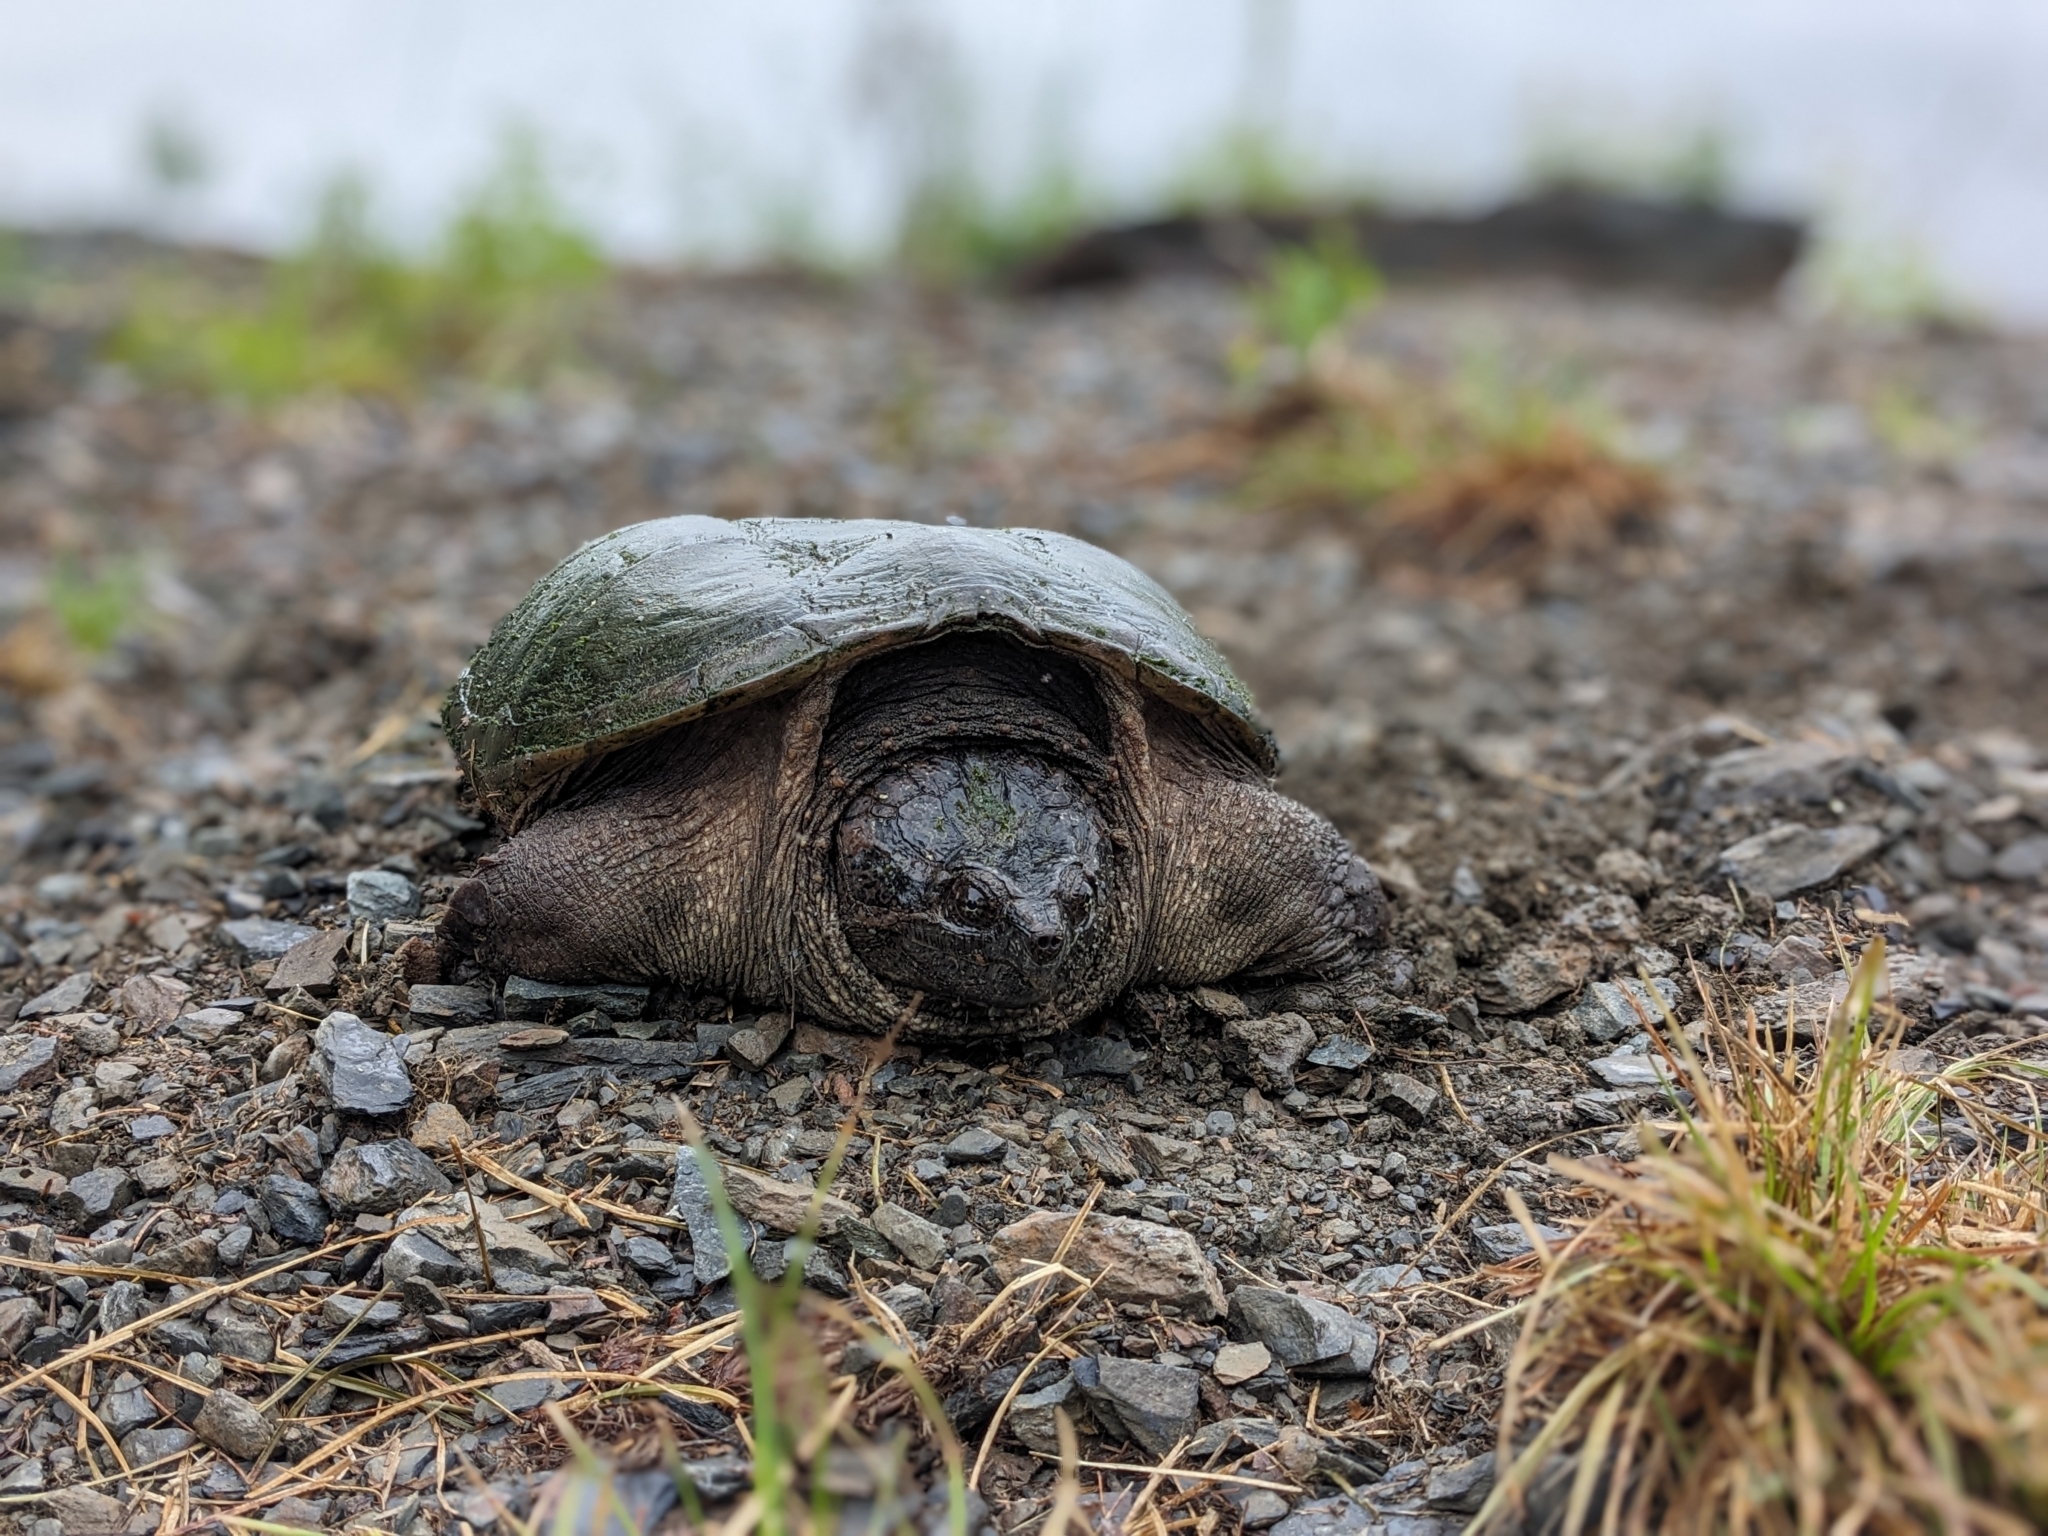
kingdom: Animalia
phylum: Chordata
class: Testudines
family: Chelydridae
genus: Chelydra
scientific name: Chelydra serpentina
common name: Common snapping turtle
